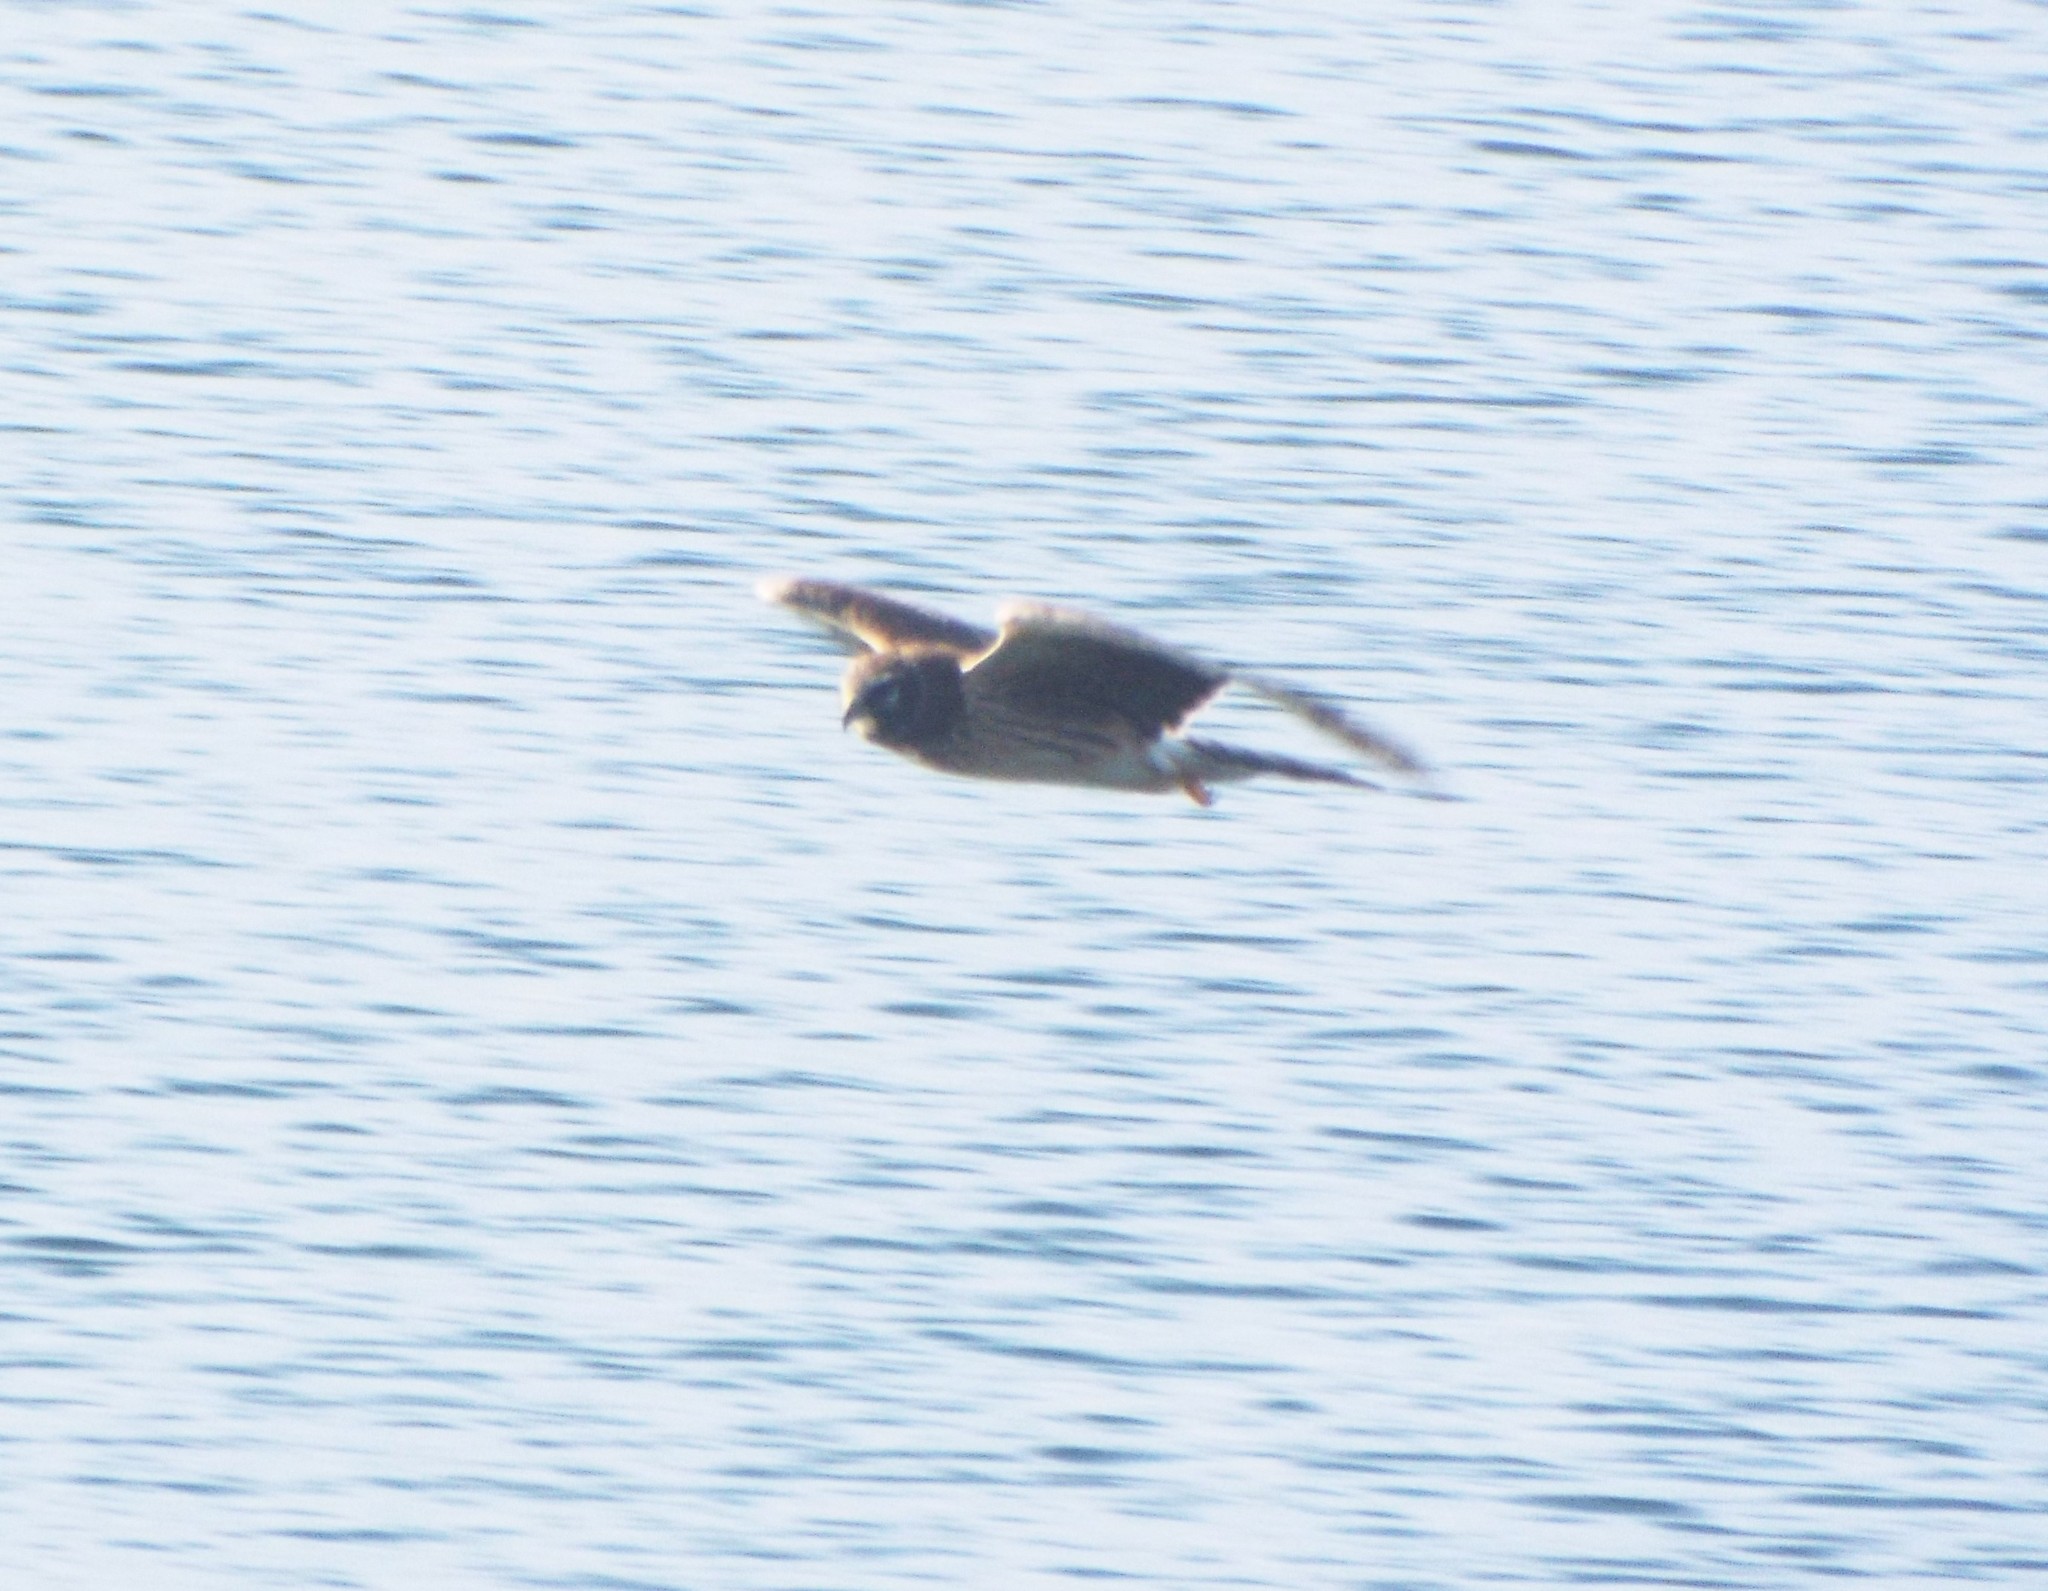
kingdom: Animalia
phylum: Chordata
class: Aves
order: Accipitriformes
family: Accipitridae
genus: Circus
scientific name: Circus cyaneus
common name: Hen harrier
